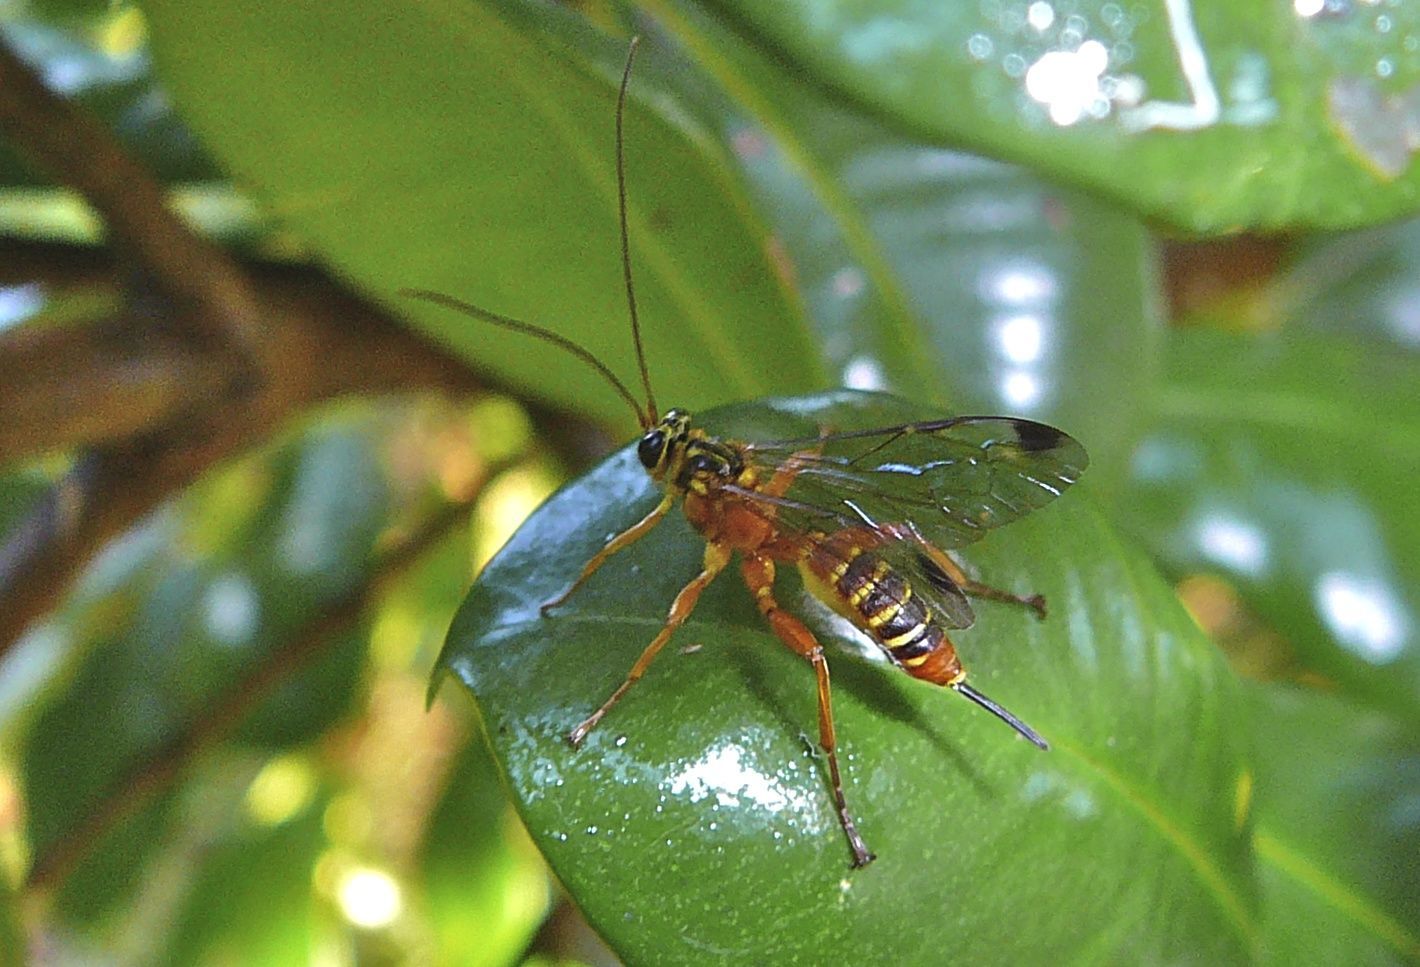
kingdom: Animalia
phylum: Arthropoda
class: Insecta
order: Hymenoptera
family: Ichneumonidae
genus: Echthromorpha
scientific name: Echthromorpha agrestoria
